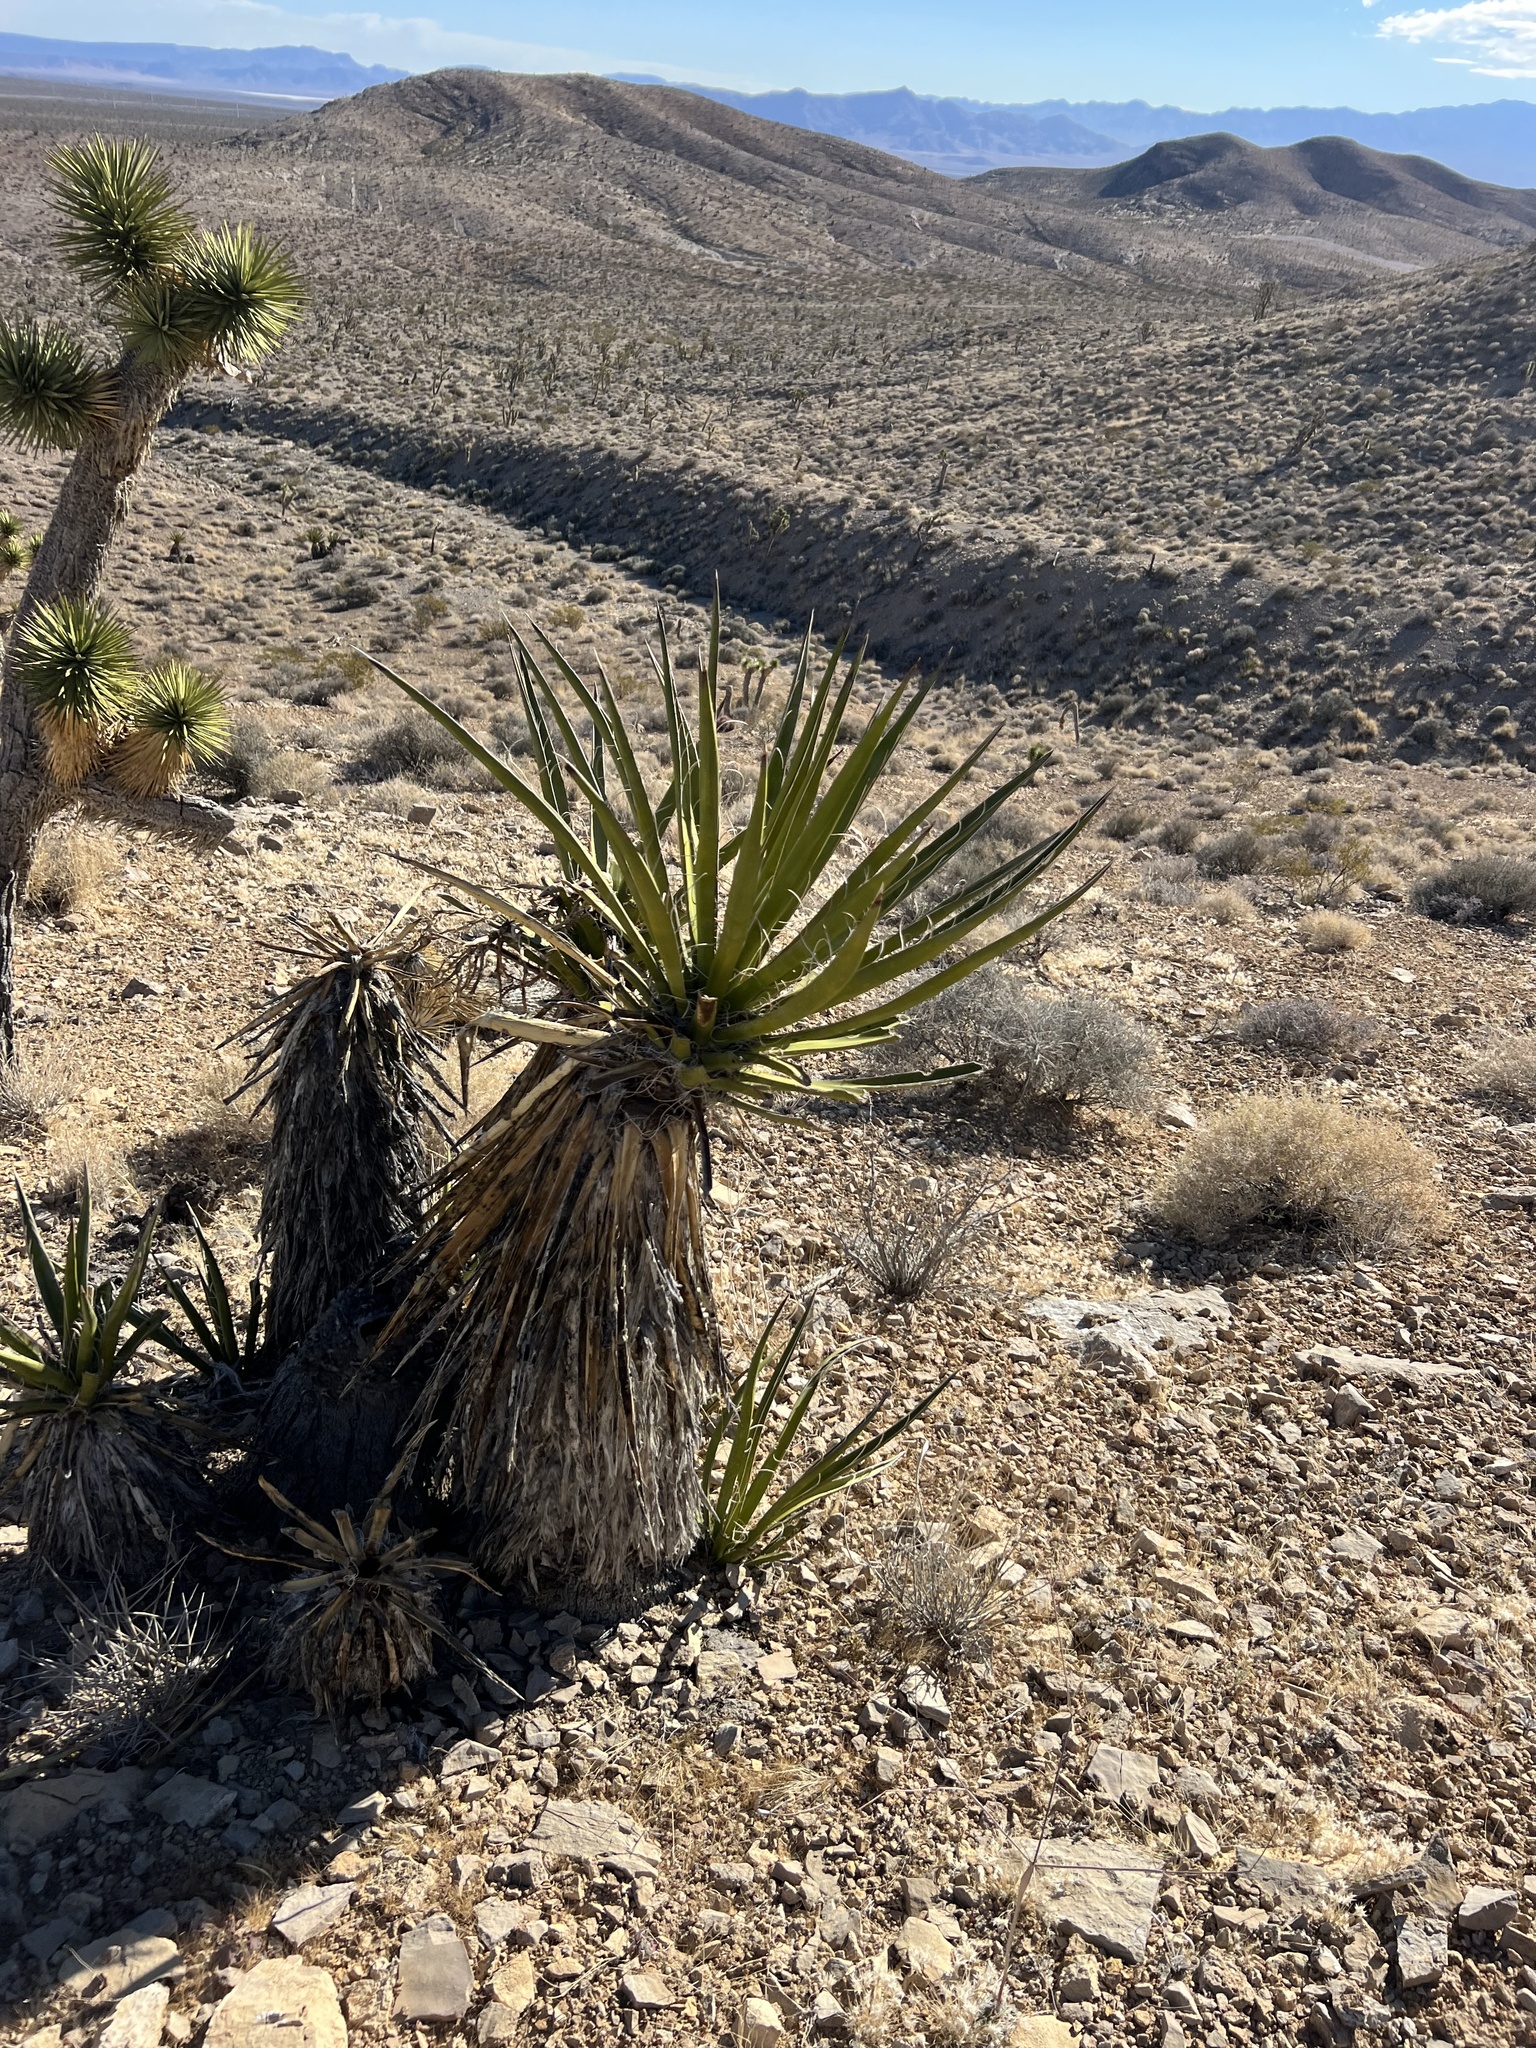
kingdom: Plantae
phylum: Tracheophyta
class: Liliopsida
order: Asparagales
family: Asparagaceae
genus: Yucca
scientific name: Yucca schidigera
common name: Mojave yucca
